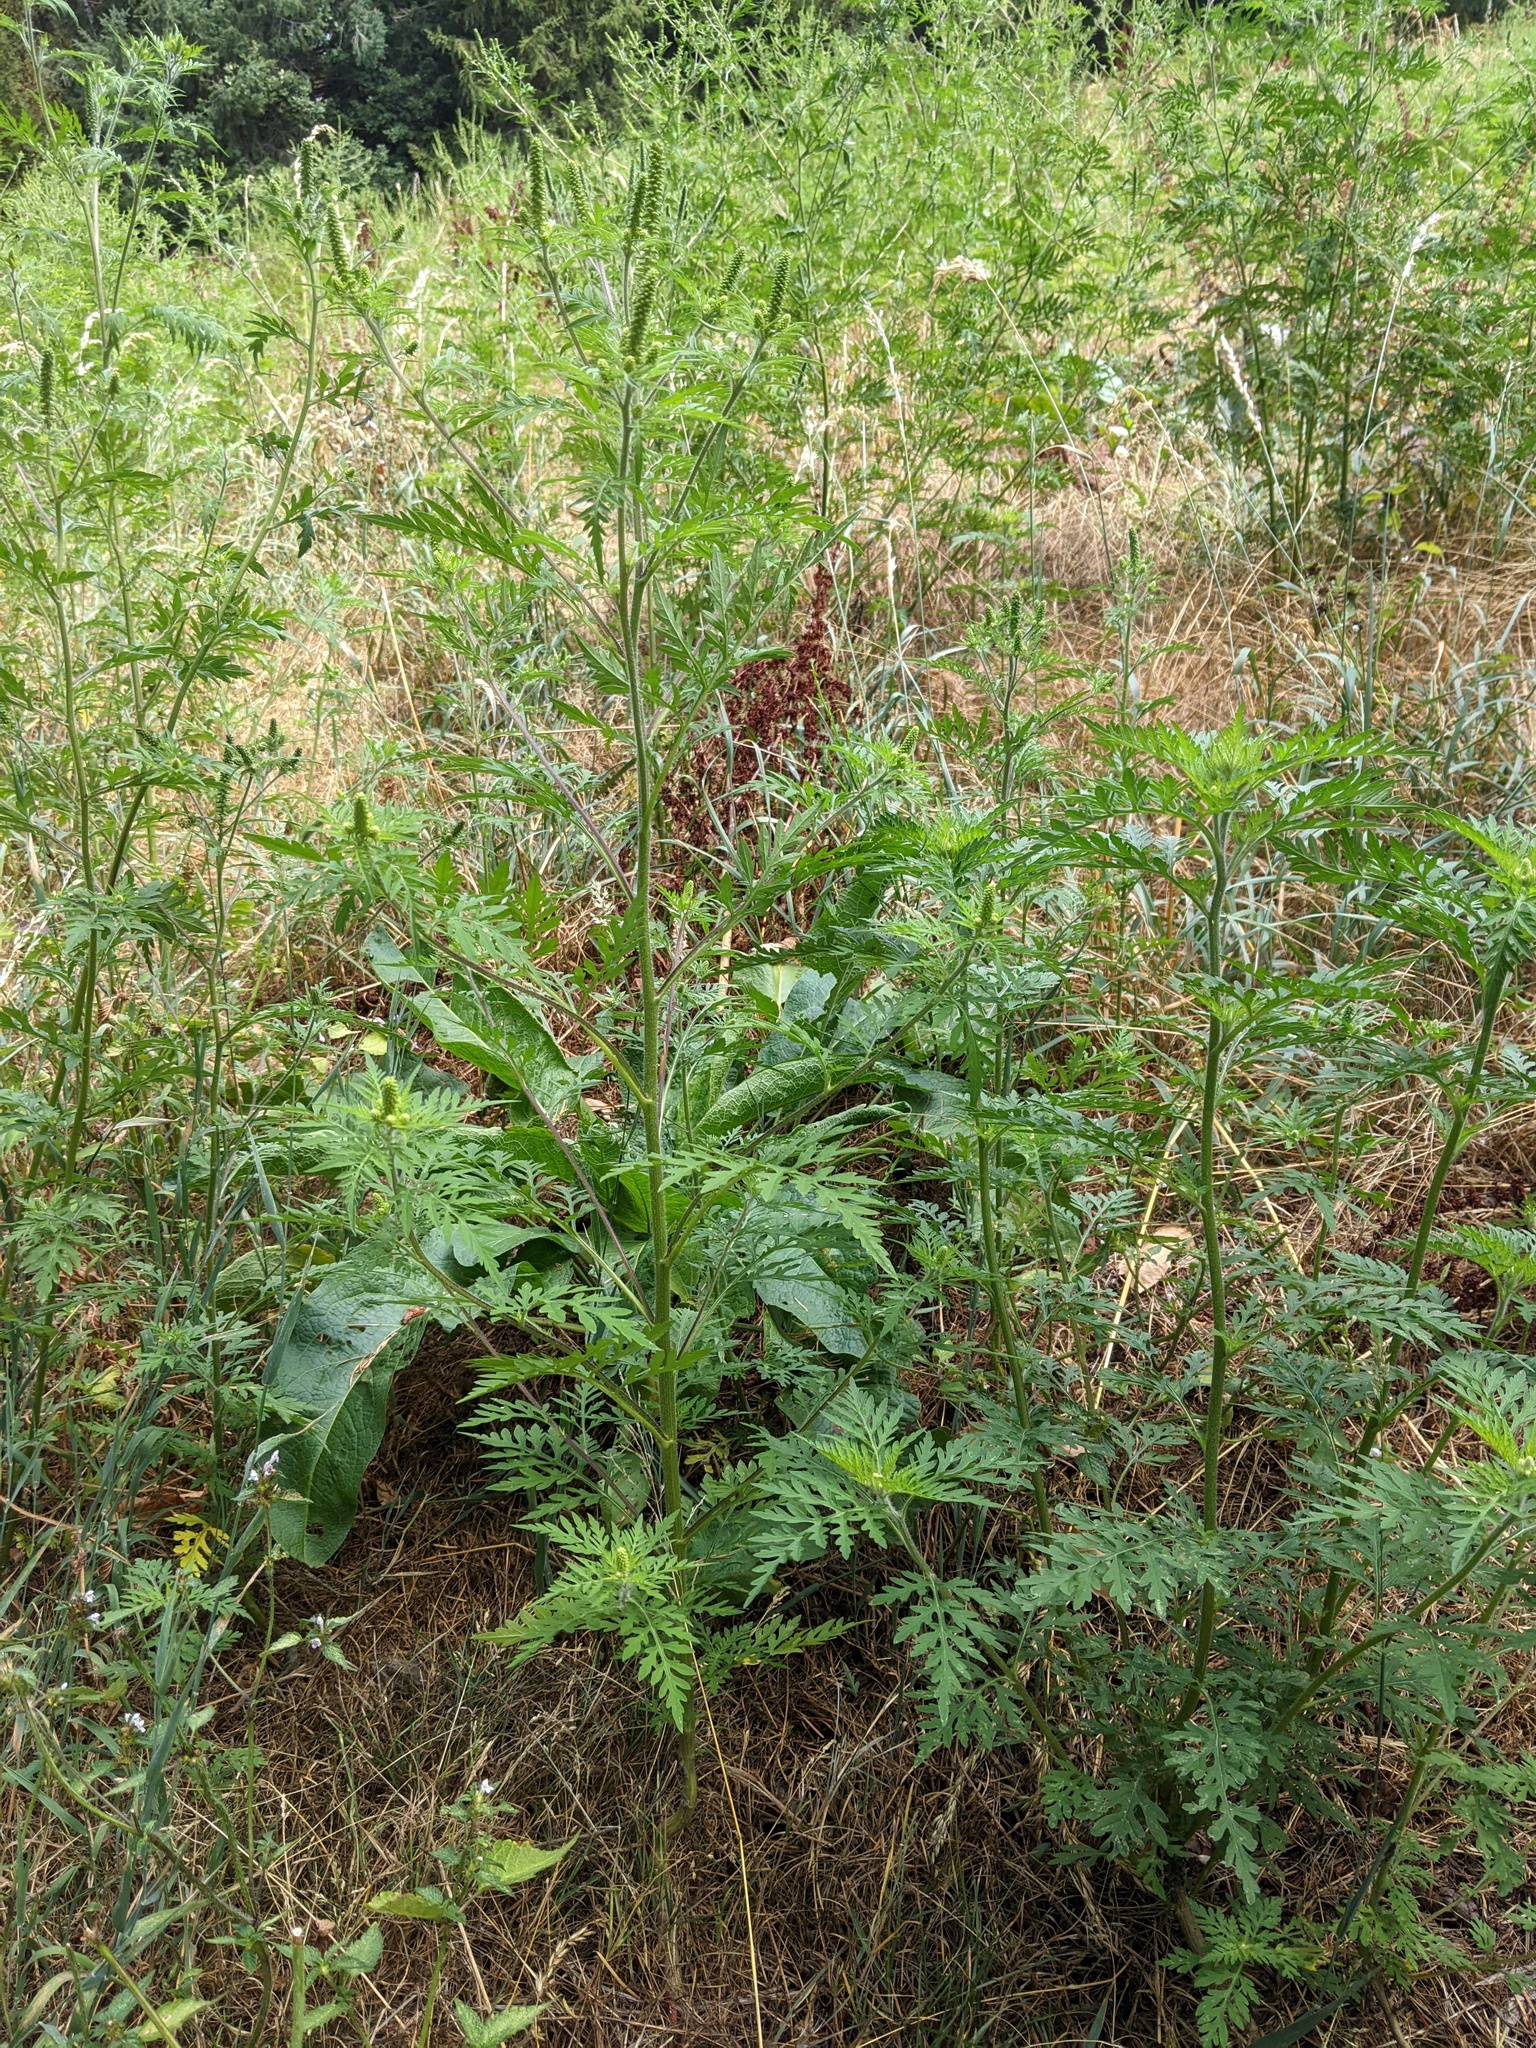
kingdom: Plantae
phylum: Tracheophyta
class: Magnoliopsida
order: Asterales
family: Asteraceae
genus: Ambrosia
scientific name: Ambrosia artemisiifolia
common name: Annual ragweed
